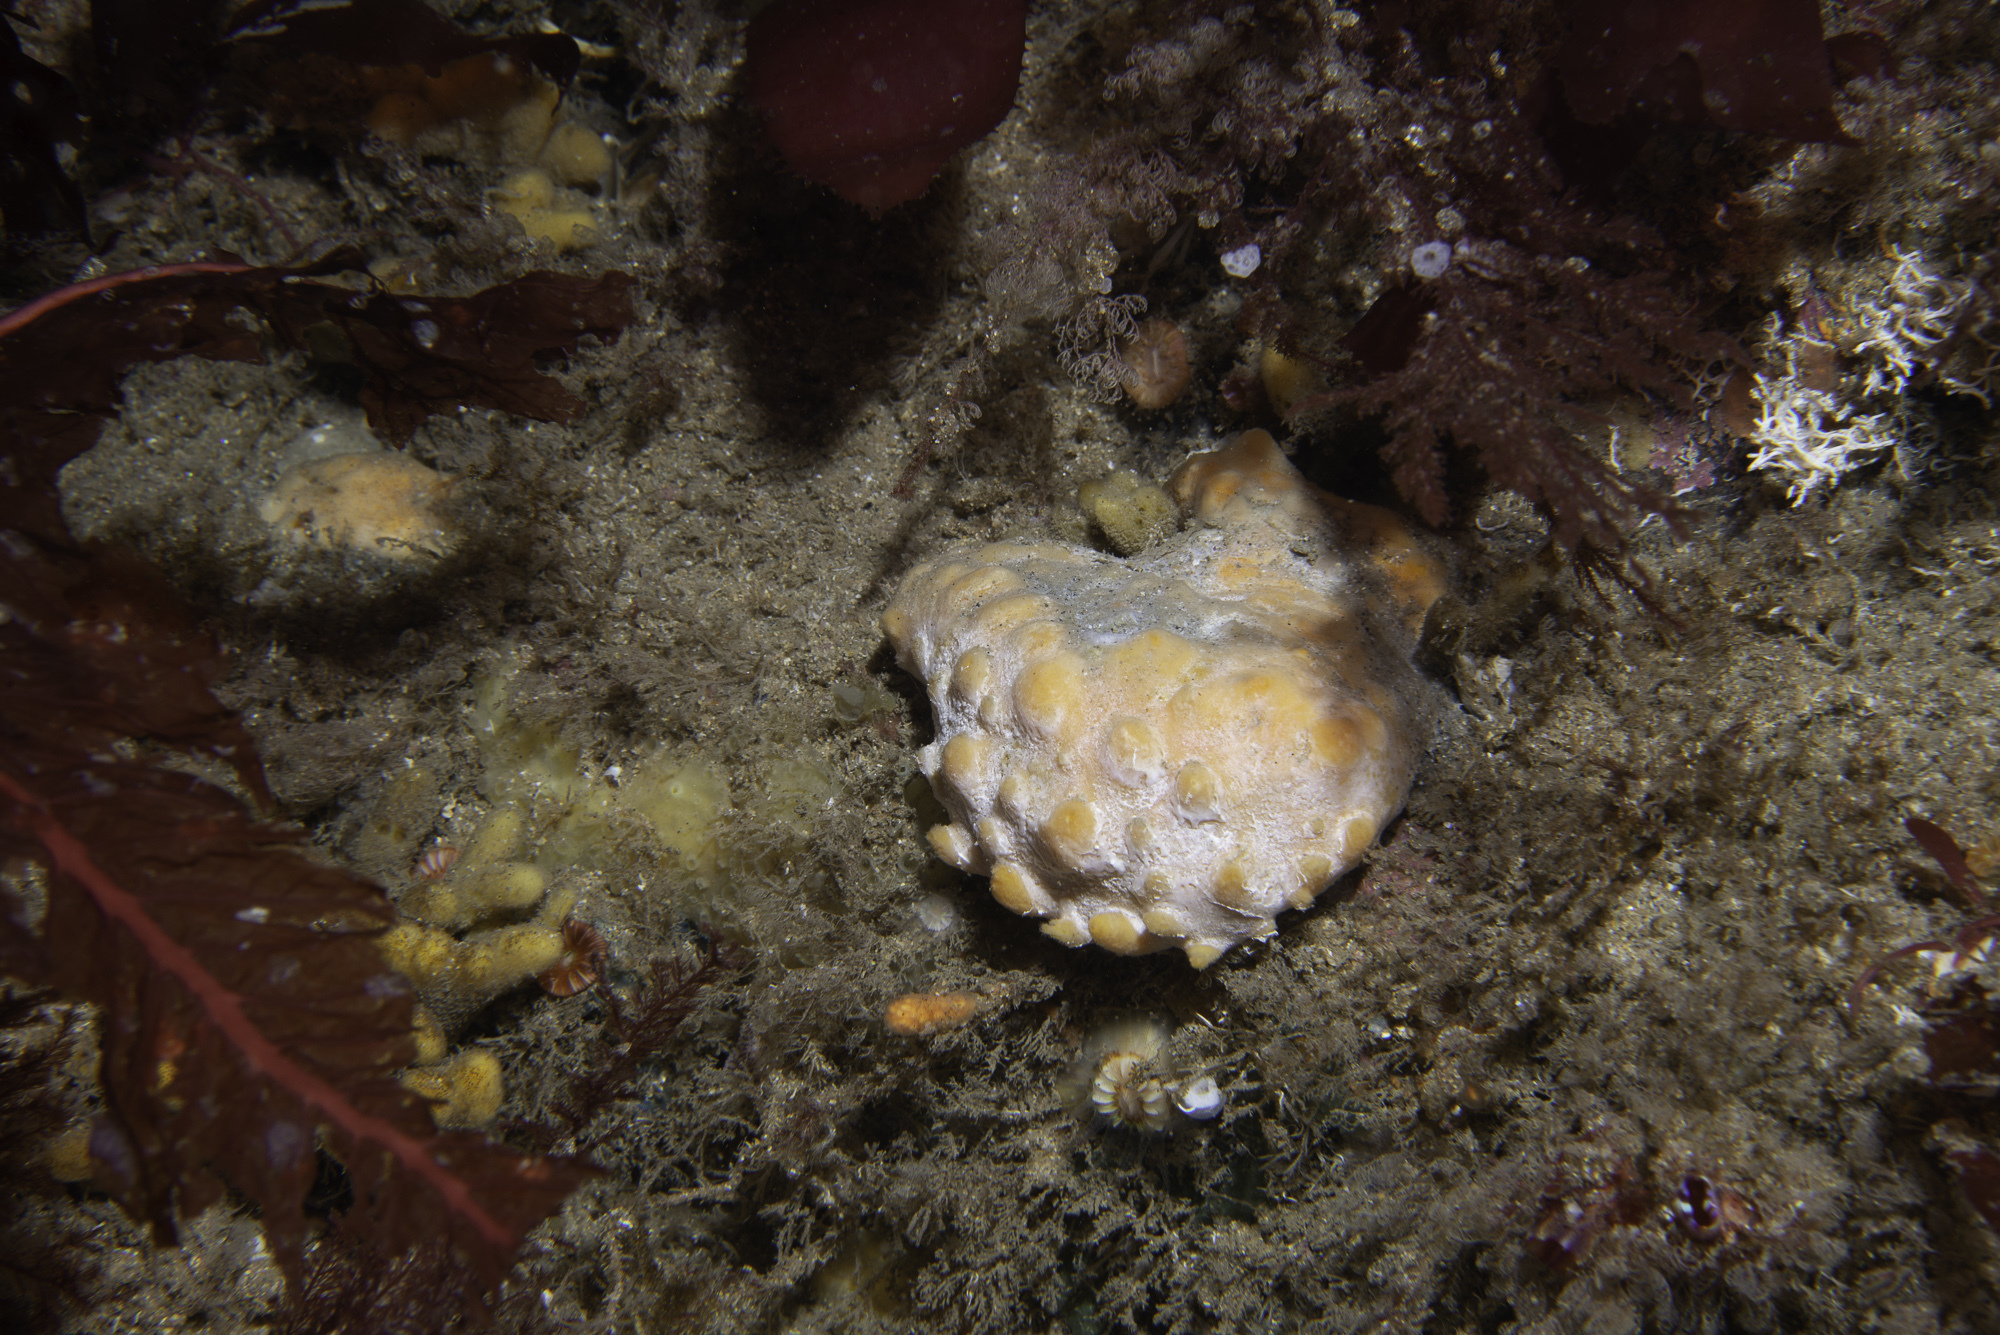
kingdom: Animalia
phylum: Porifera
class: Demospongiae
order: Polymastiida
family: Polymastiidae
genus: Polymastia
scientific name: Polymastia boletiformis
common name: Massive horny sponge
